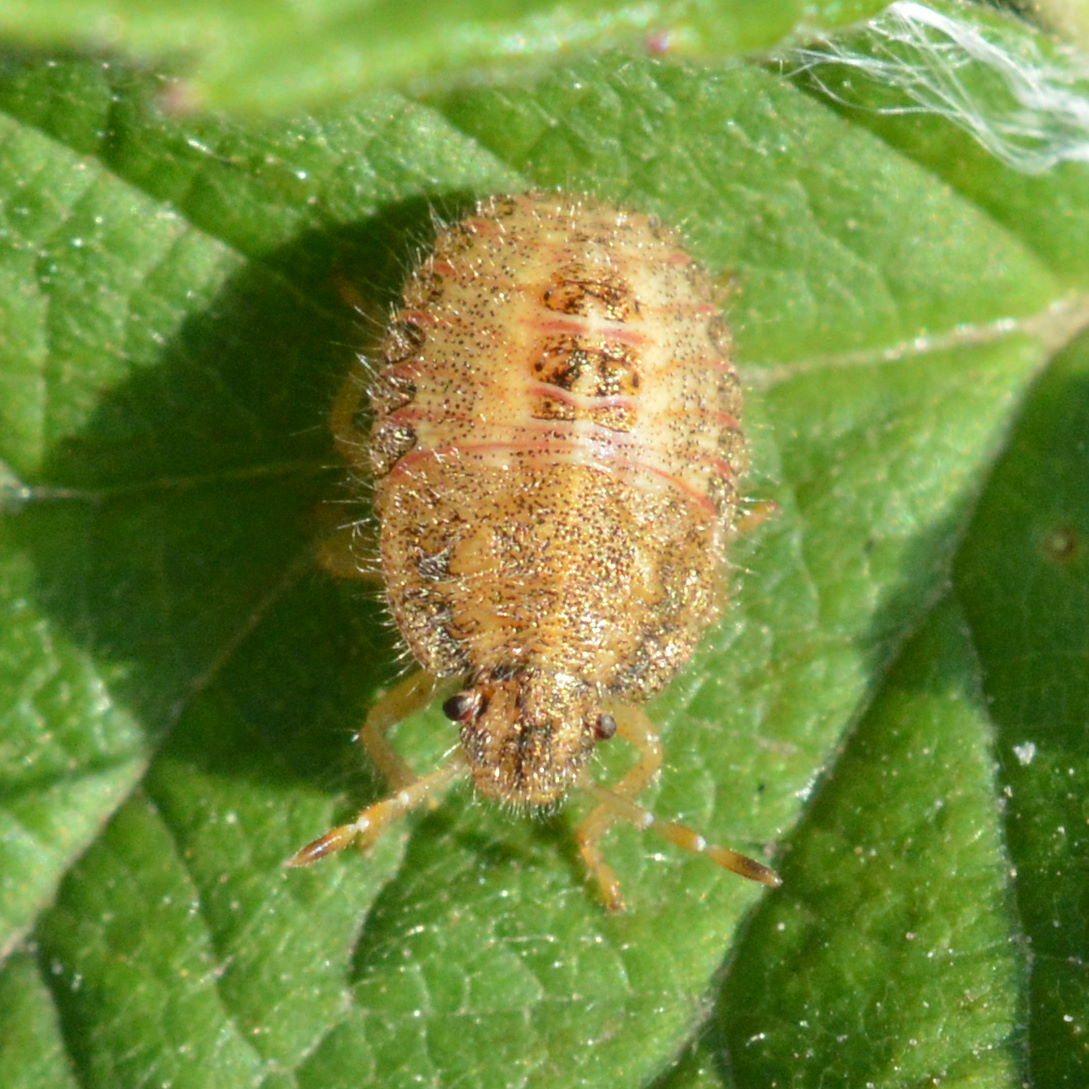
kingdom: Animalia
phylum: Arthropoda
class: Insecta
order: Hemiptera
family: Pentatomidae
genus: Dolycoris
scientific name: Dolycoris baccarum
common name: Sloe bug
